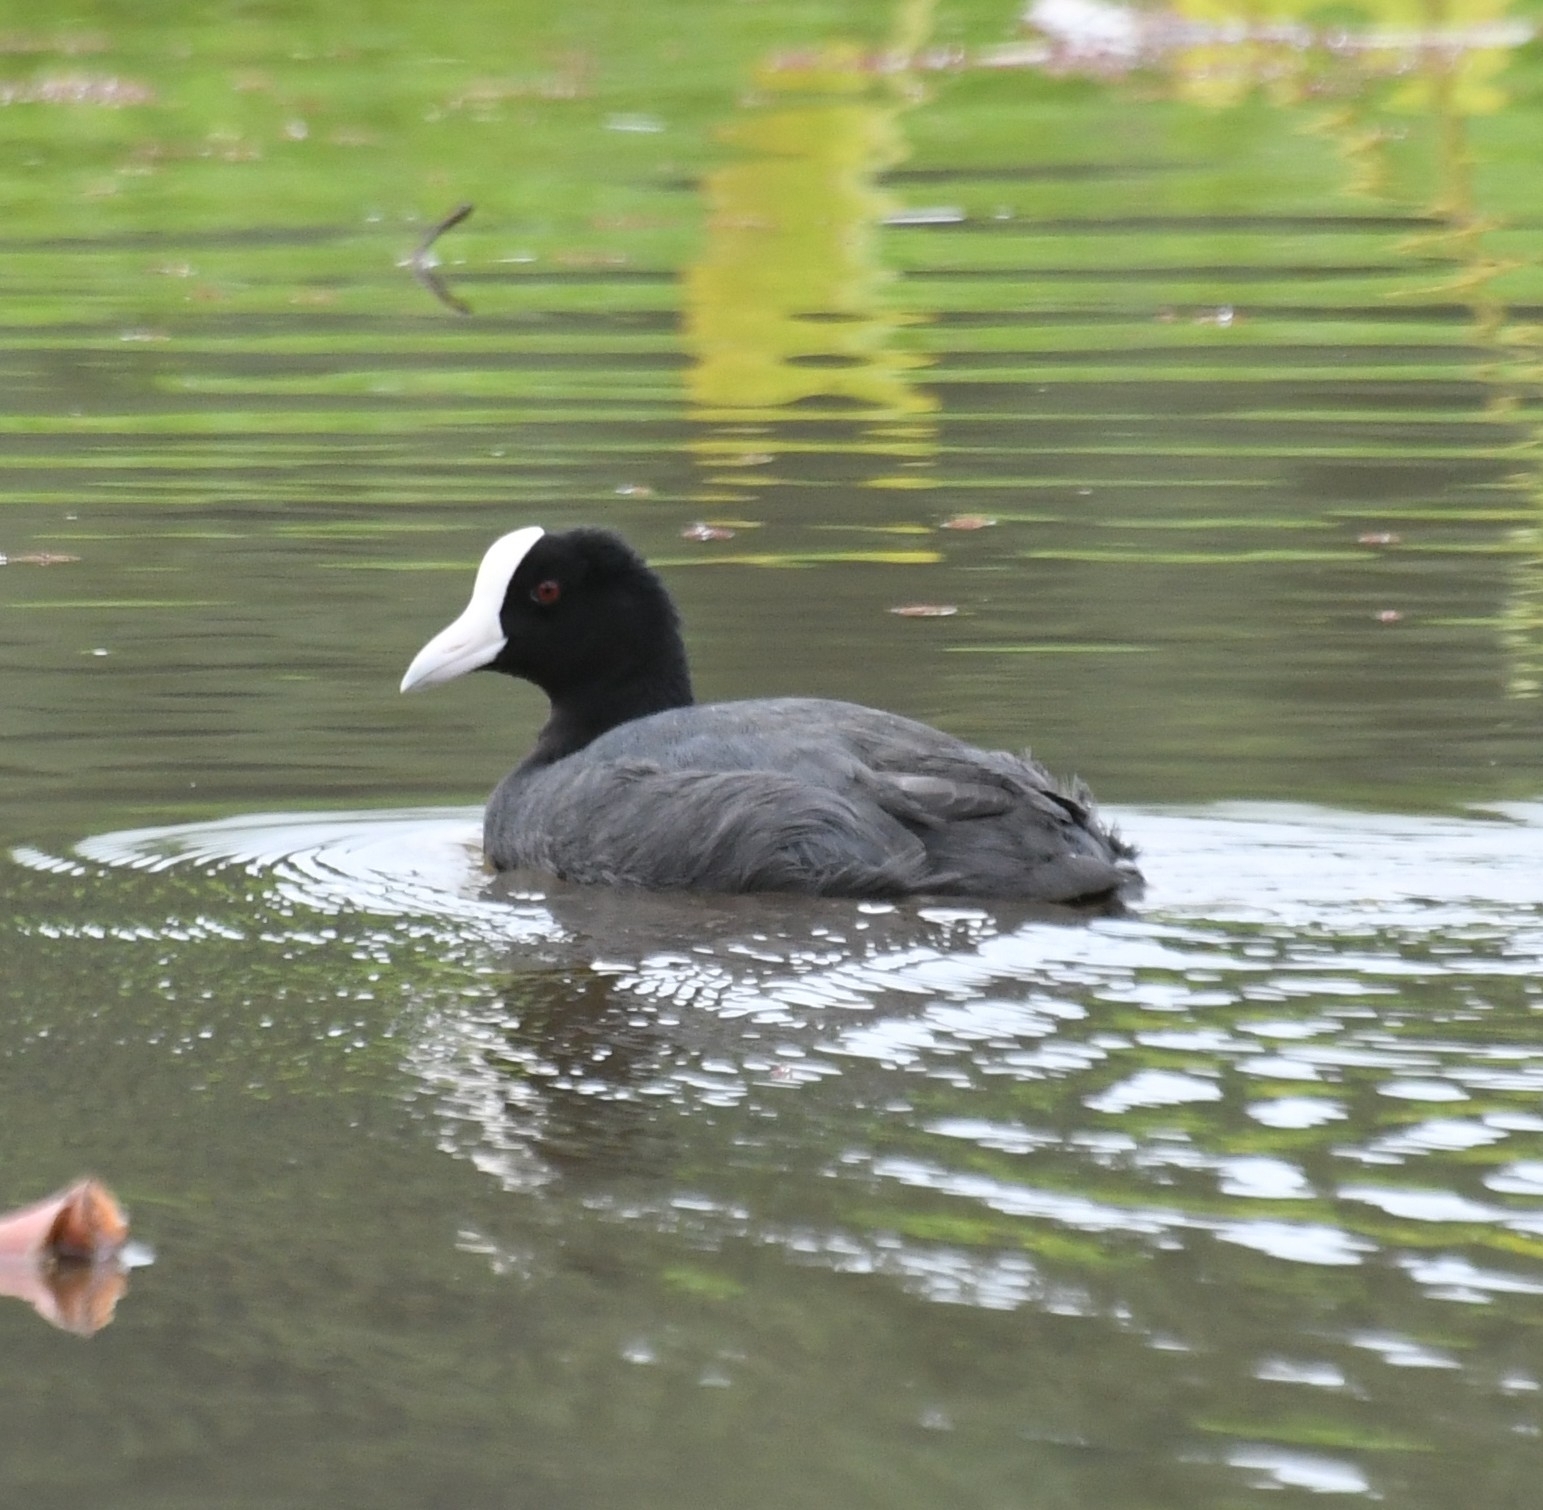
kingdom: Animalia
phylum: Chordata
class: Aves
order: Gruiformes
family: Rallidae
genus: Fulica
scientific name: Fulica alai
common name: Hawaiian coot
